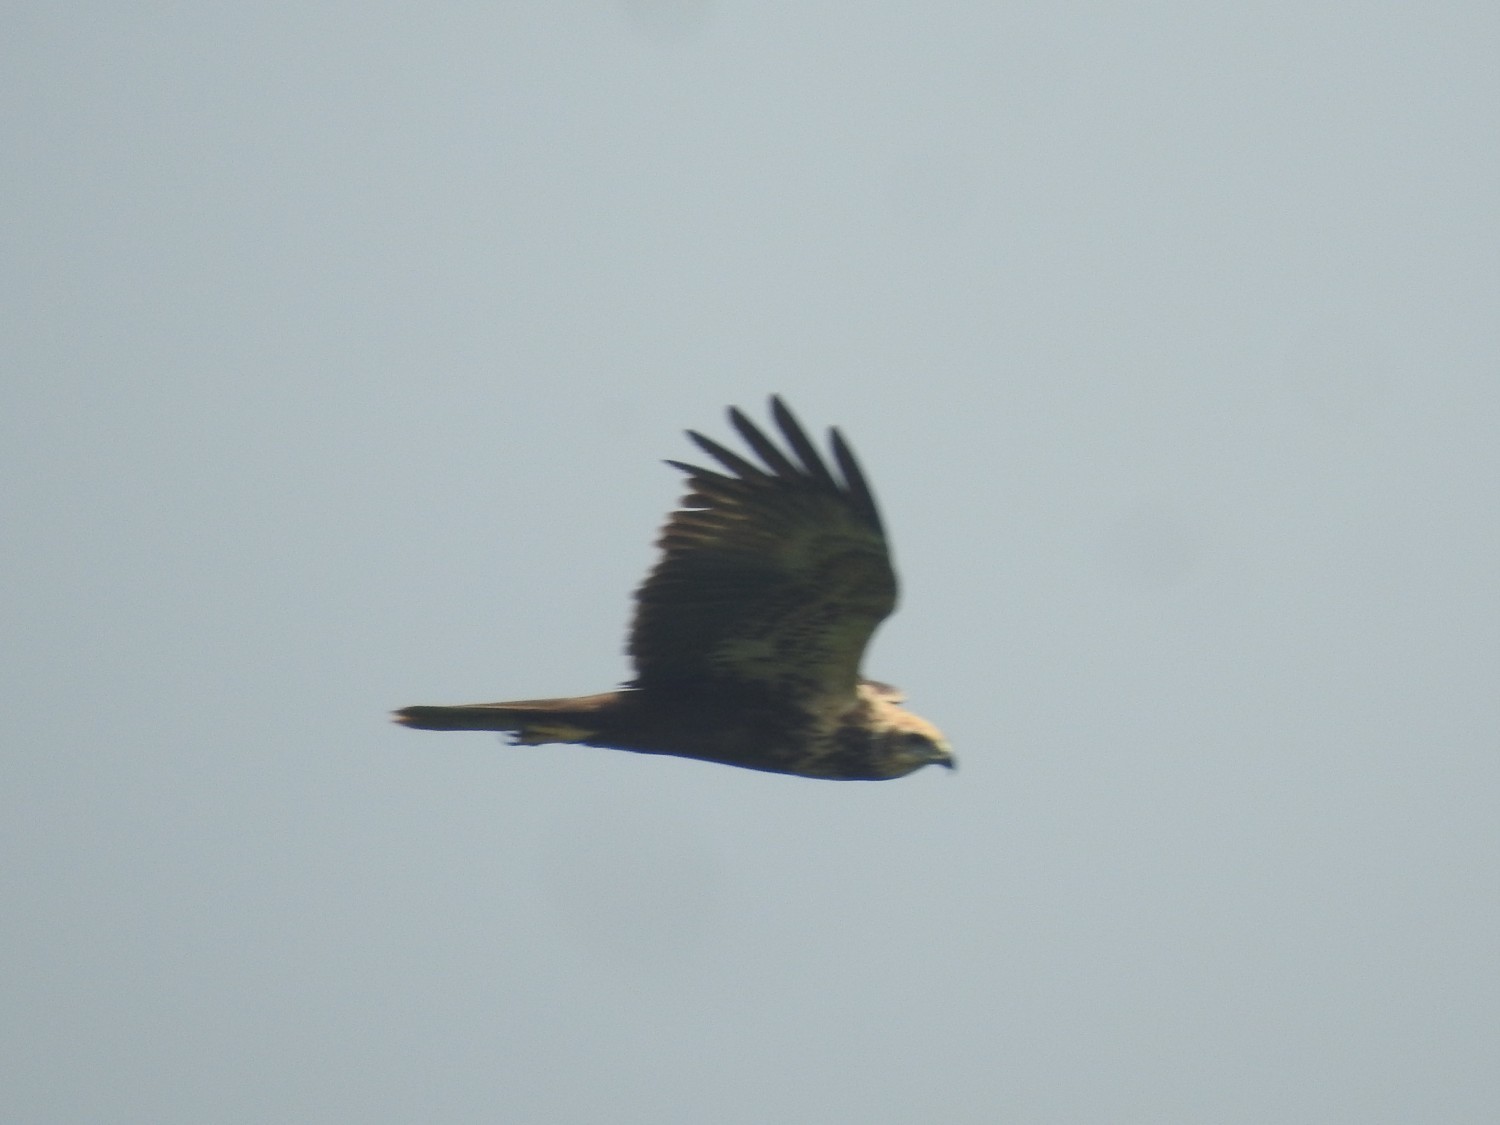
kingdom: Animalia
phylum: Chordata
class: Aves
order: Accipitriformes
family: Accipitridae
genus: Circus
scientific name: Circus aeruginosus
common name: Western marsh harrier
